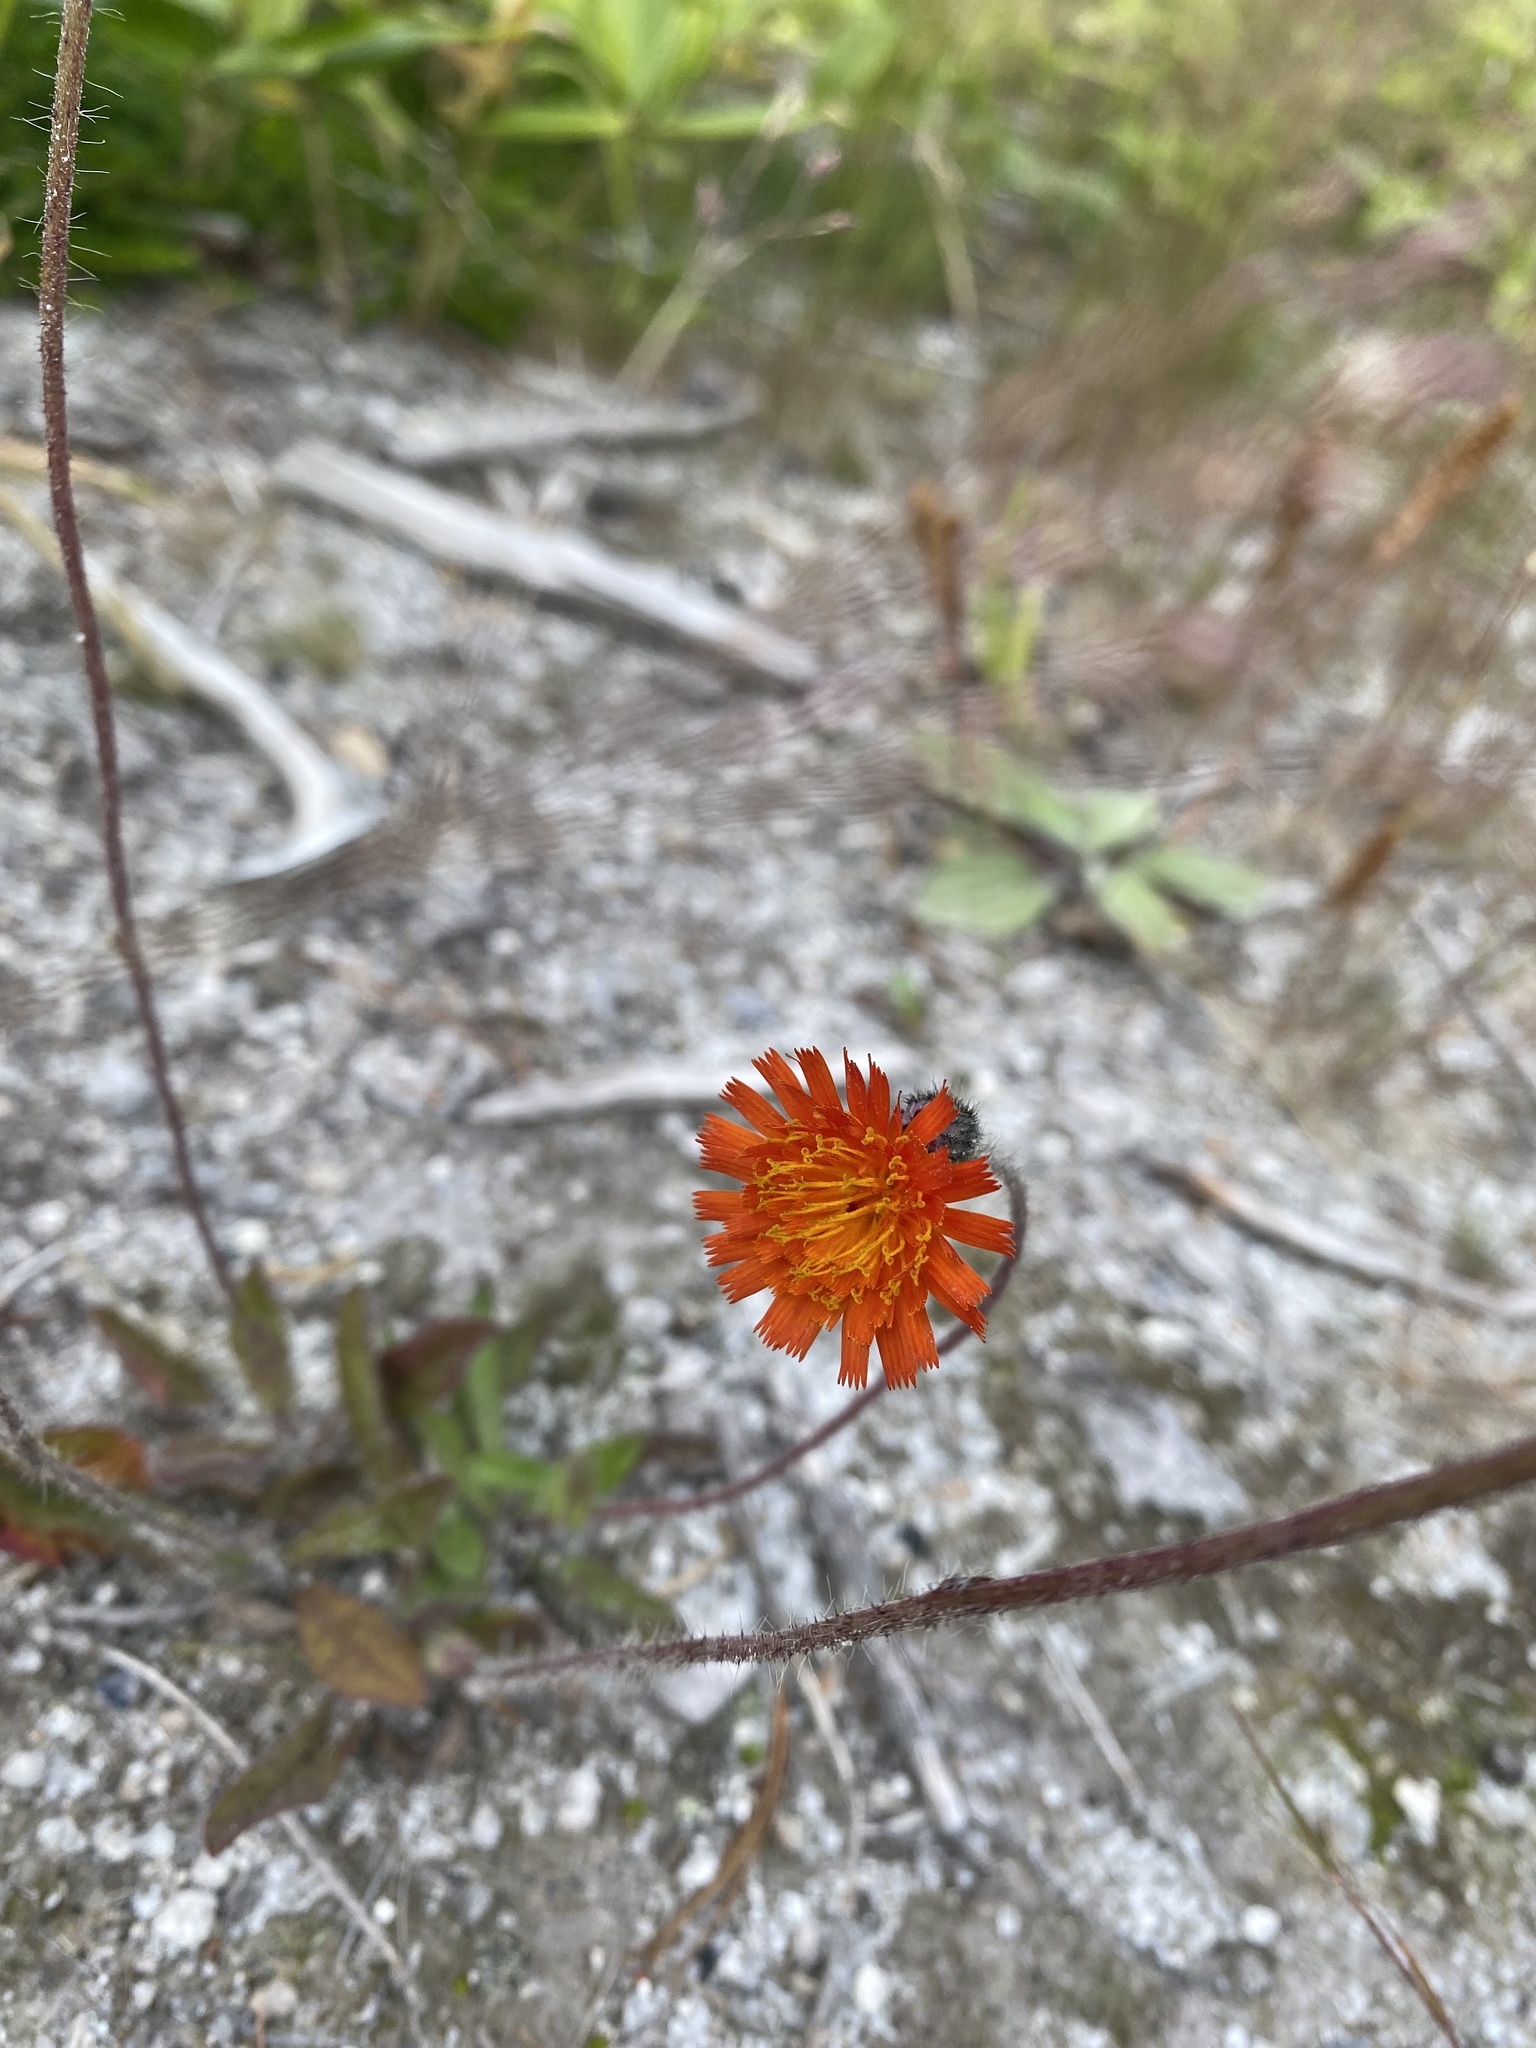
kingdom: Plantae
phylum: Tracheophyta
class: Magnoliopsida
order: Asterales
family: Asteraceae
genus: Pilosella
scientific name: Pilosella aurantiaca
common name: Fox-and-cubs
